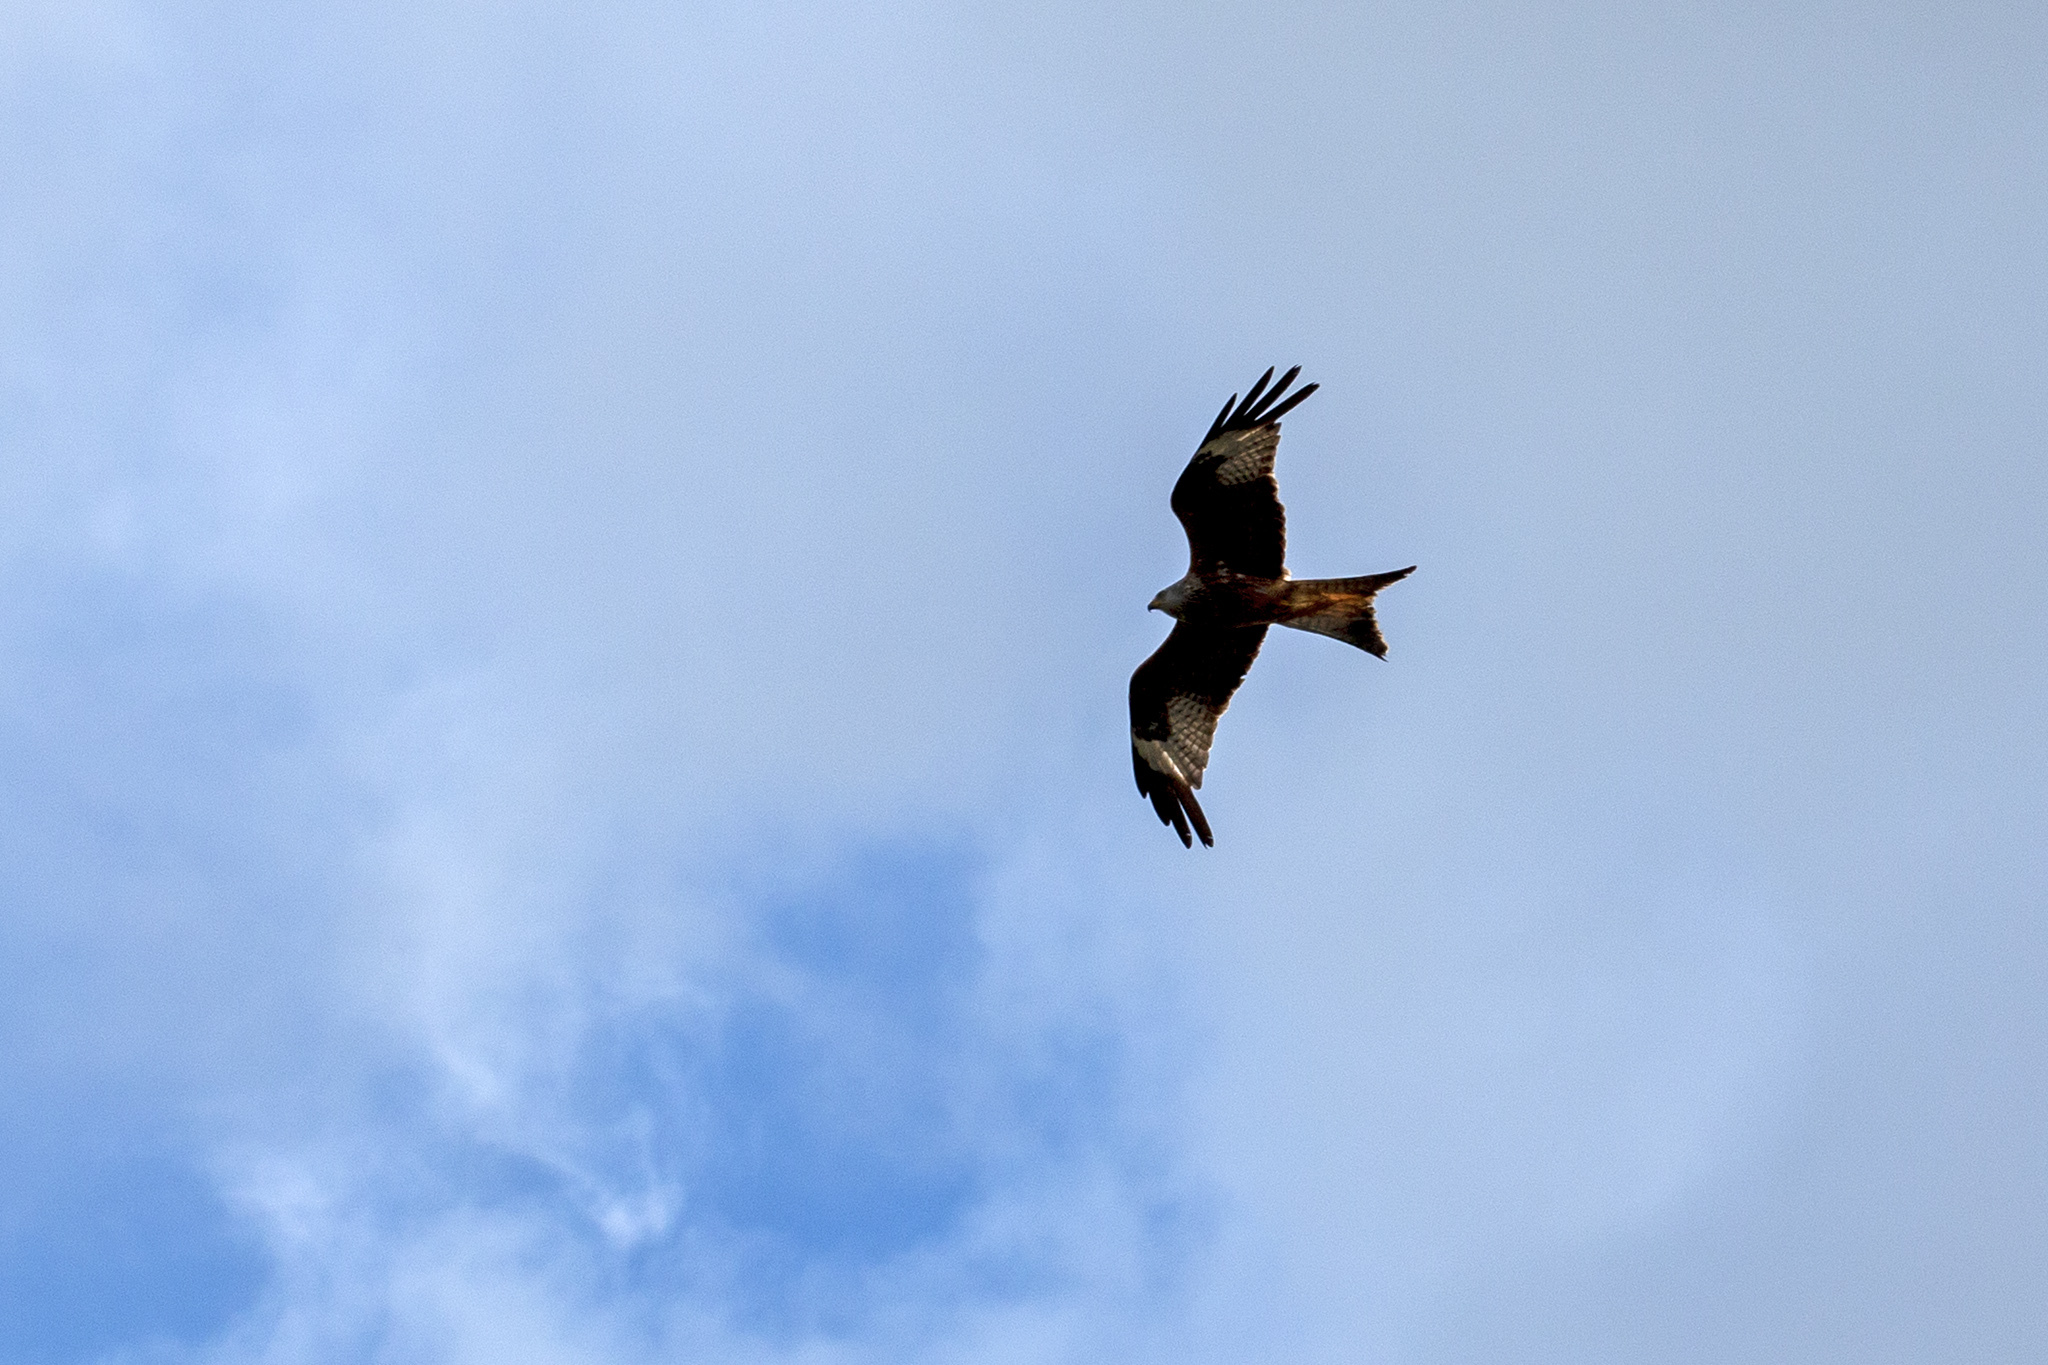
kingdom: Animalia
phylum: Chordata
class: Aves
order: Accipitriformes
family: Accipitridae
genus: Milvus
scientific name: Milvus milvus
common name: Red kite
